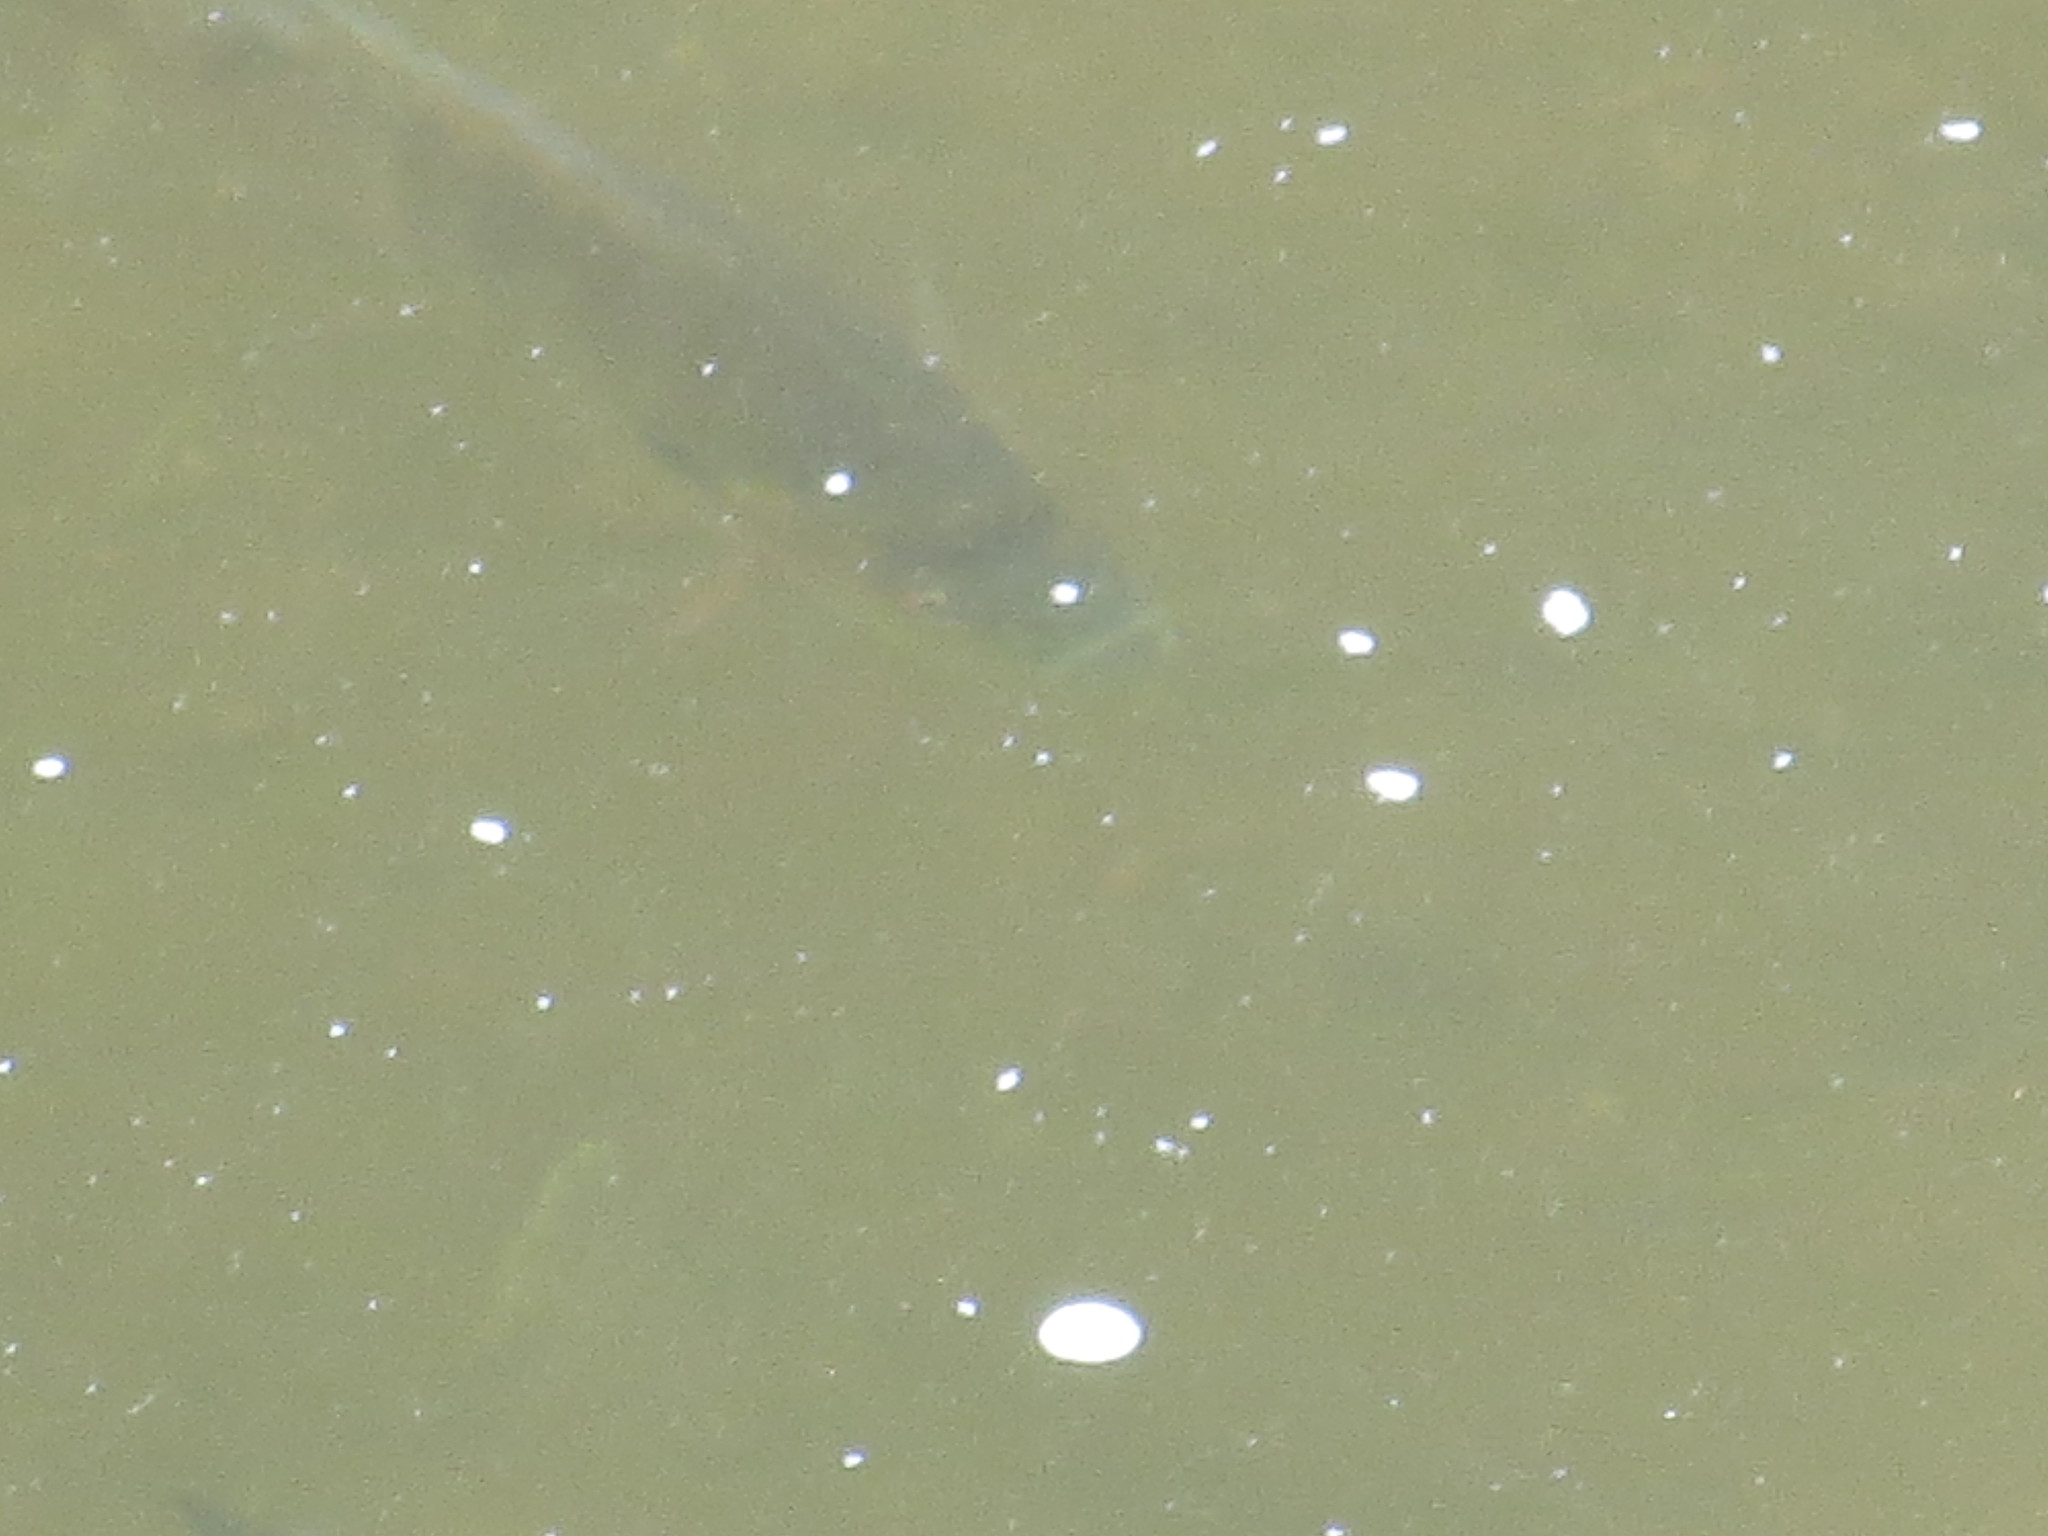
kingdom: Animalia
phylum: Chordata
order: Perciformes
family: Centrarchidae
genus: Lepomis
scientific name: Lepomis macrochirus
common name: Bluegill
